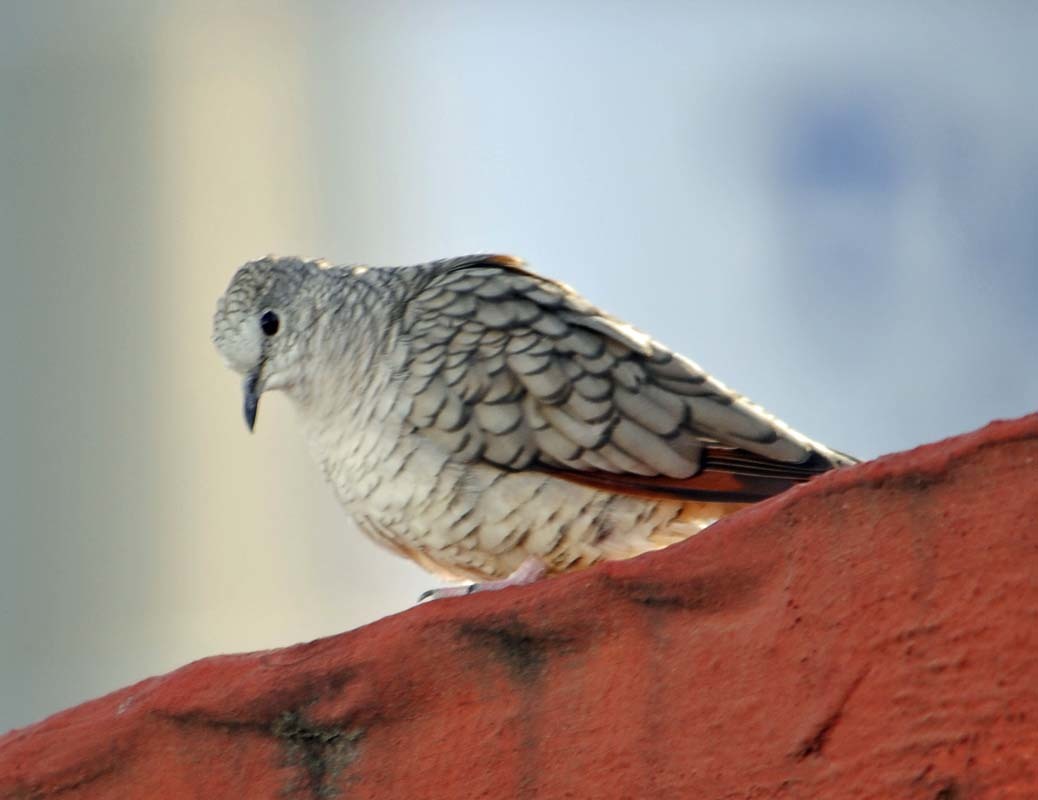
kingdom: Animalia
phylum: Chordata
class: Aves
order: Columbiformes
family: Columbidae
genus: Columbina
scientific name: Columbina inca
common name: Inca dove
